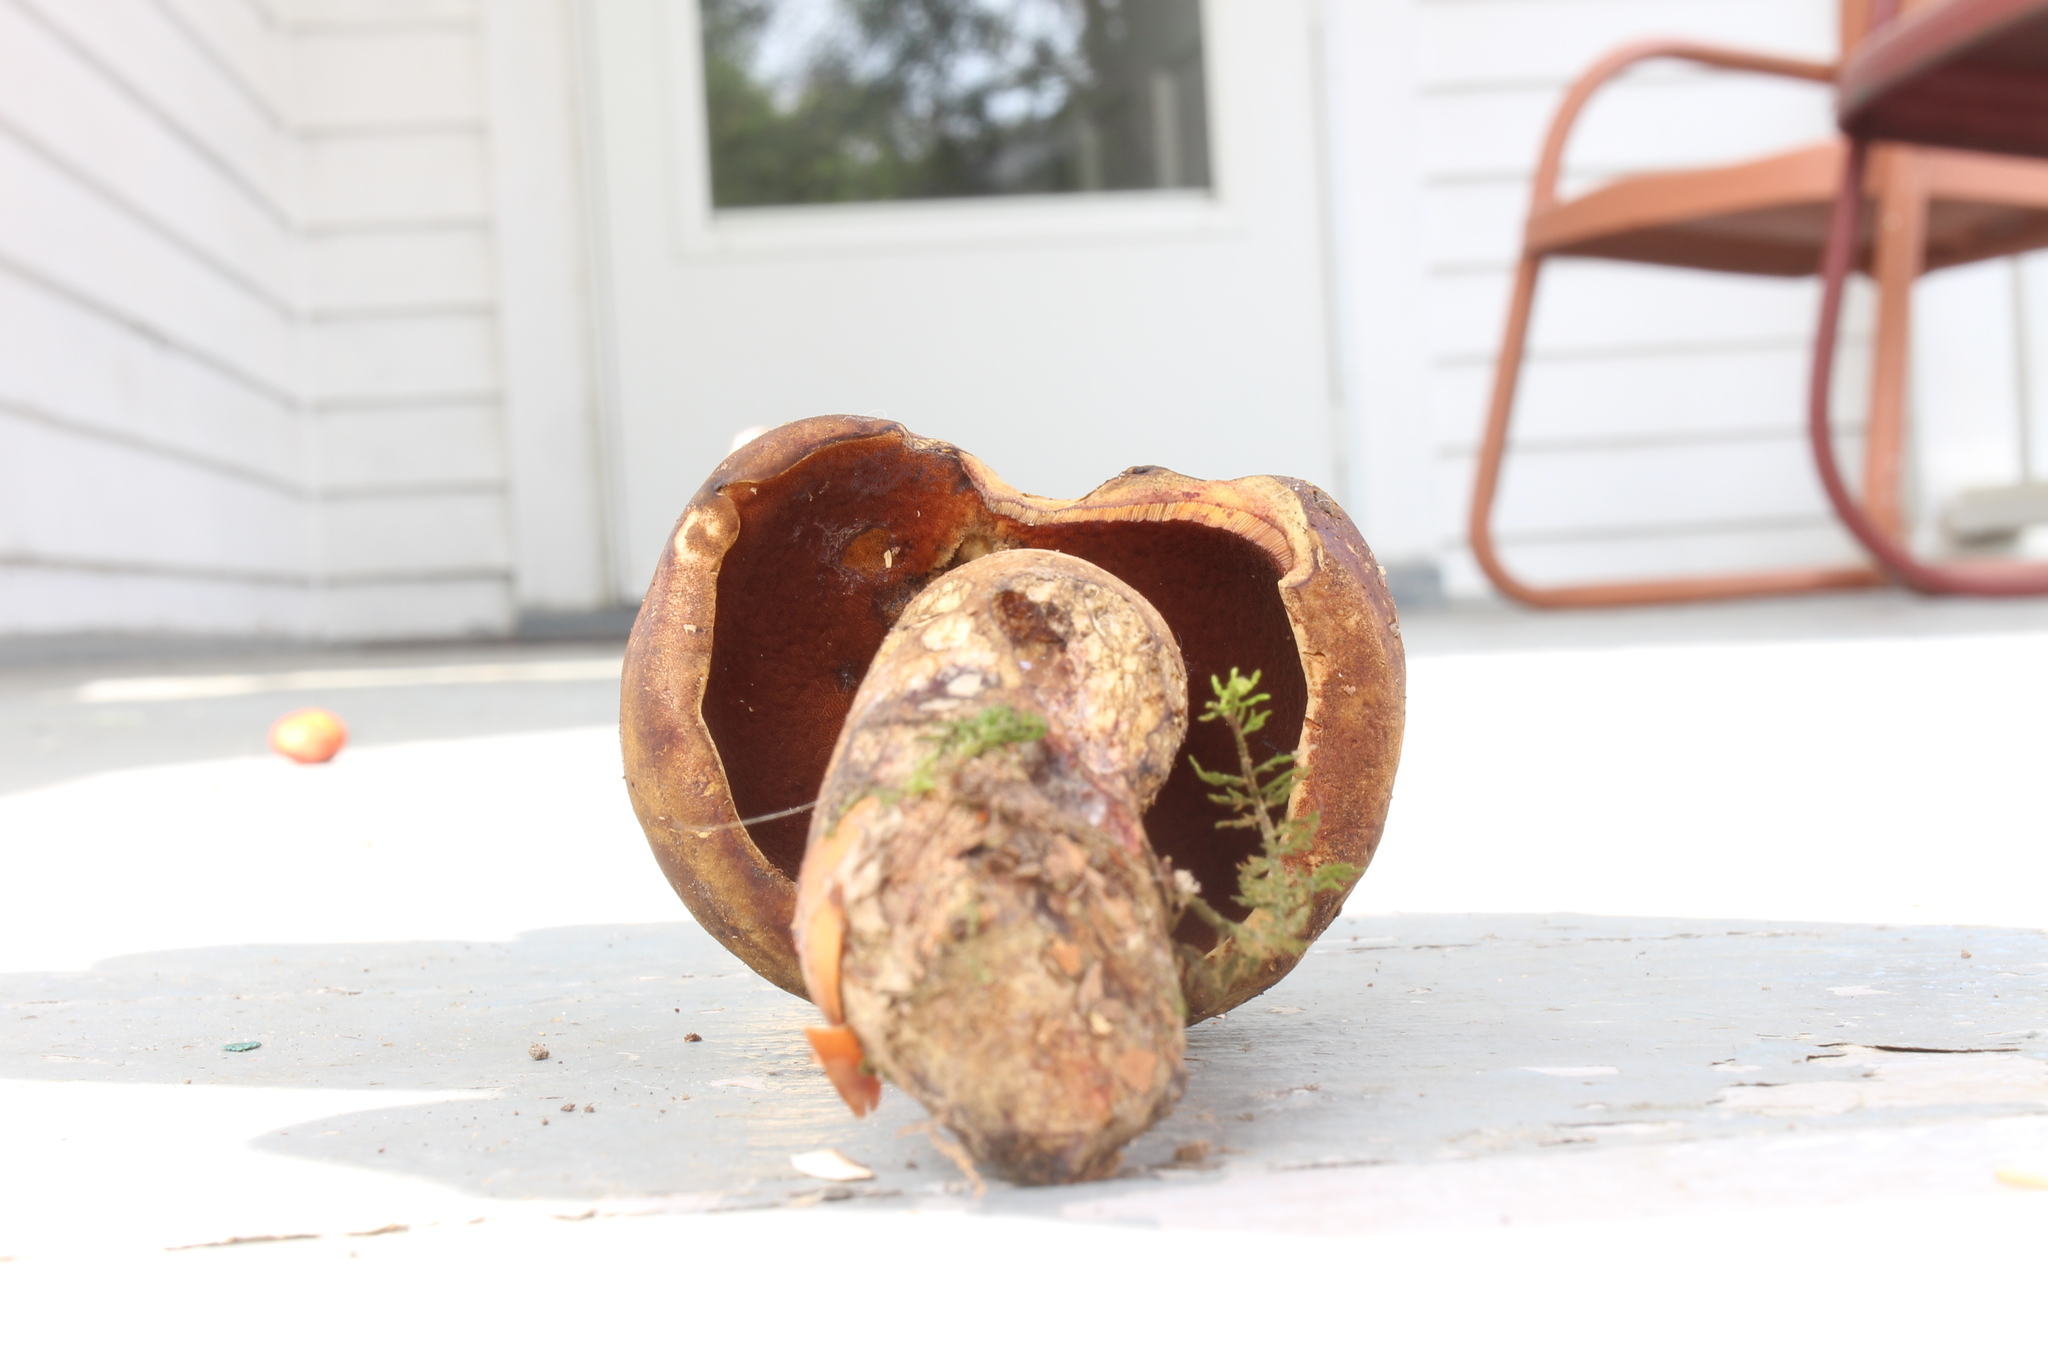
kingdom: Fungi
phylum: Basidiomycota
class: Agaricomycetes
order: Boletales
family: Boletaceae
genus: Boletus
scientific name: Boletus vermiculosoides
